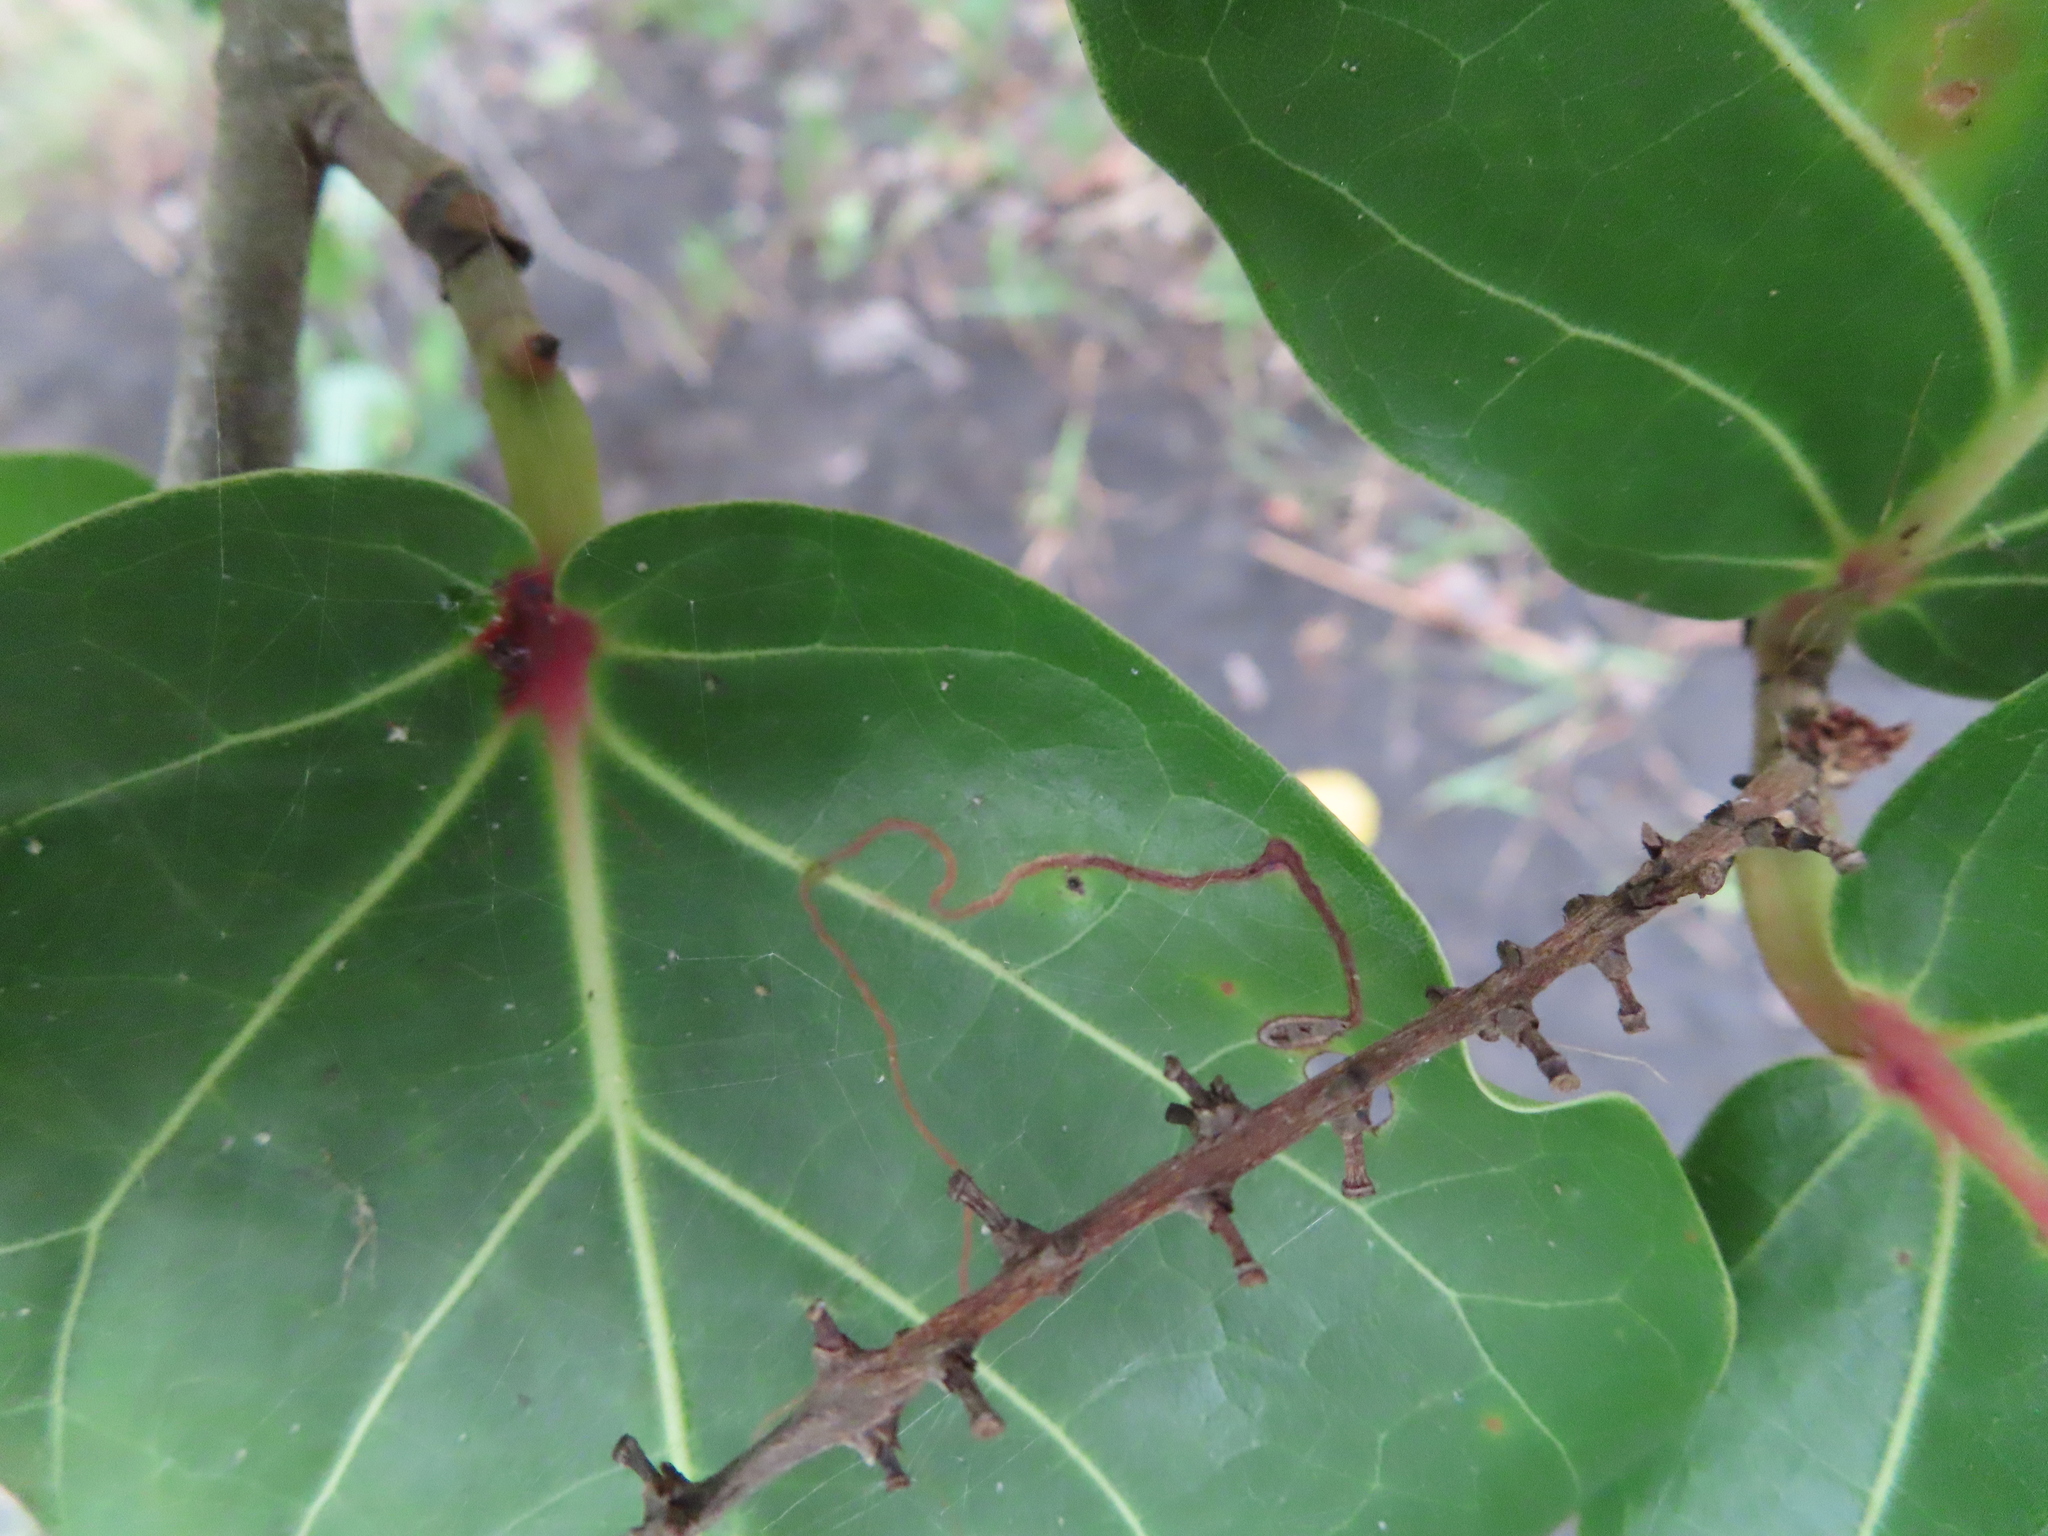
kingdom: Animalia
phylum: Arthropoda
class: Insecta
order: Lepidoptera
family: Nepticulidae
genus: Enteucha
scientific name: Enteucha basidactyla
